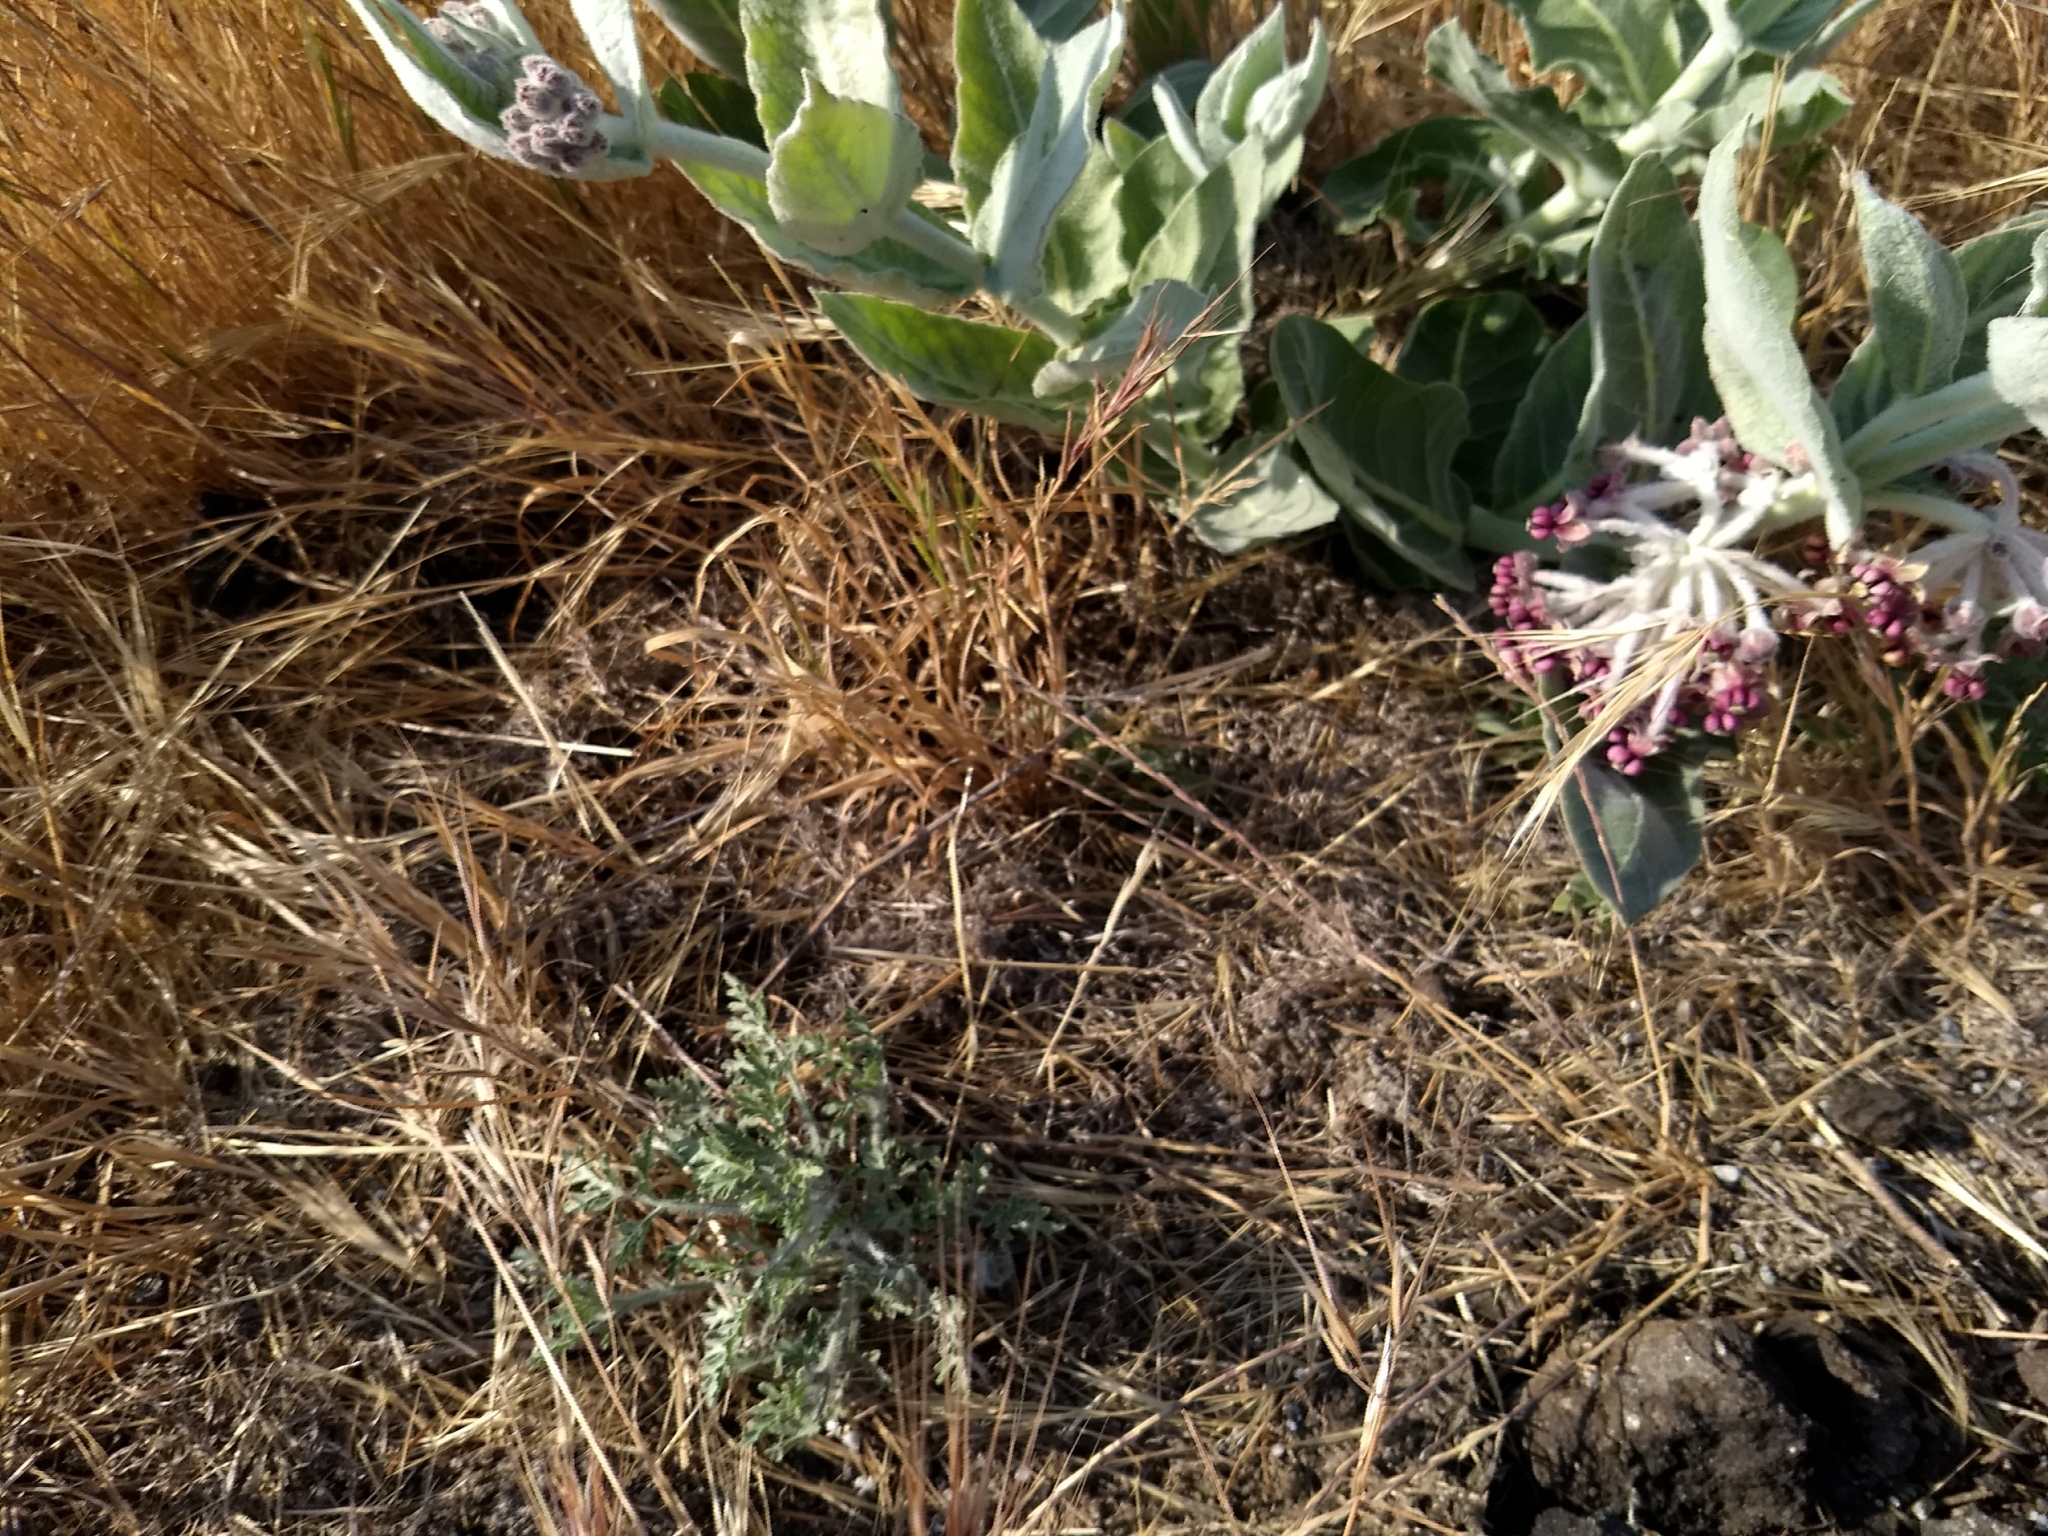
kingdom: Plantae
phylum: Tracheophyta
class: Magnoliopsida
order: Gentianales
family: Apocynaceae
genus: Asclepias
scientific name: Asclepias californica
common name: California milkweed
